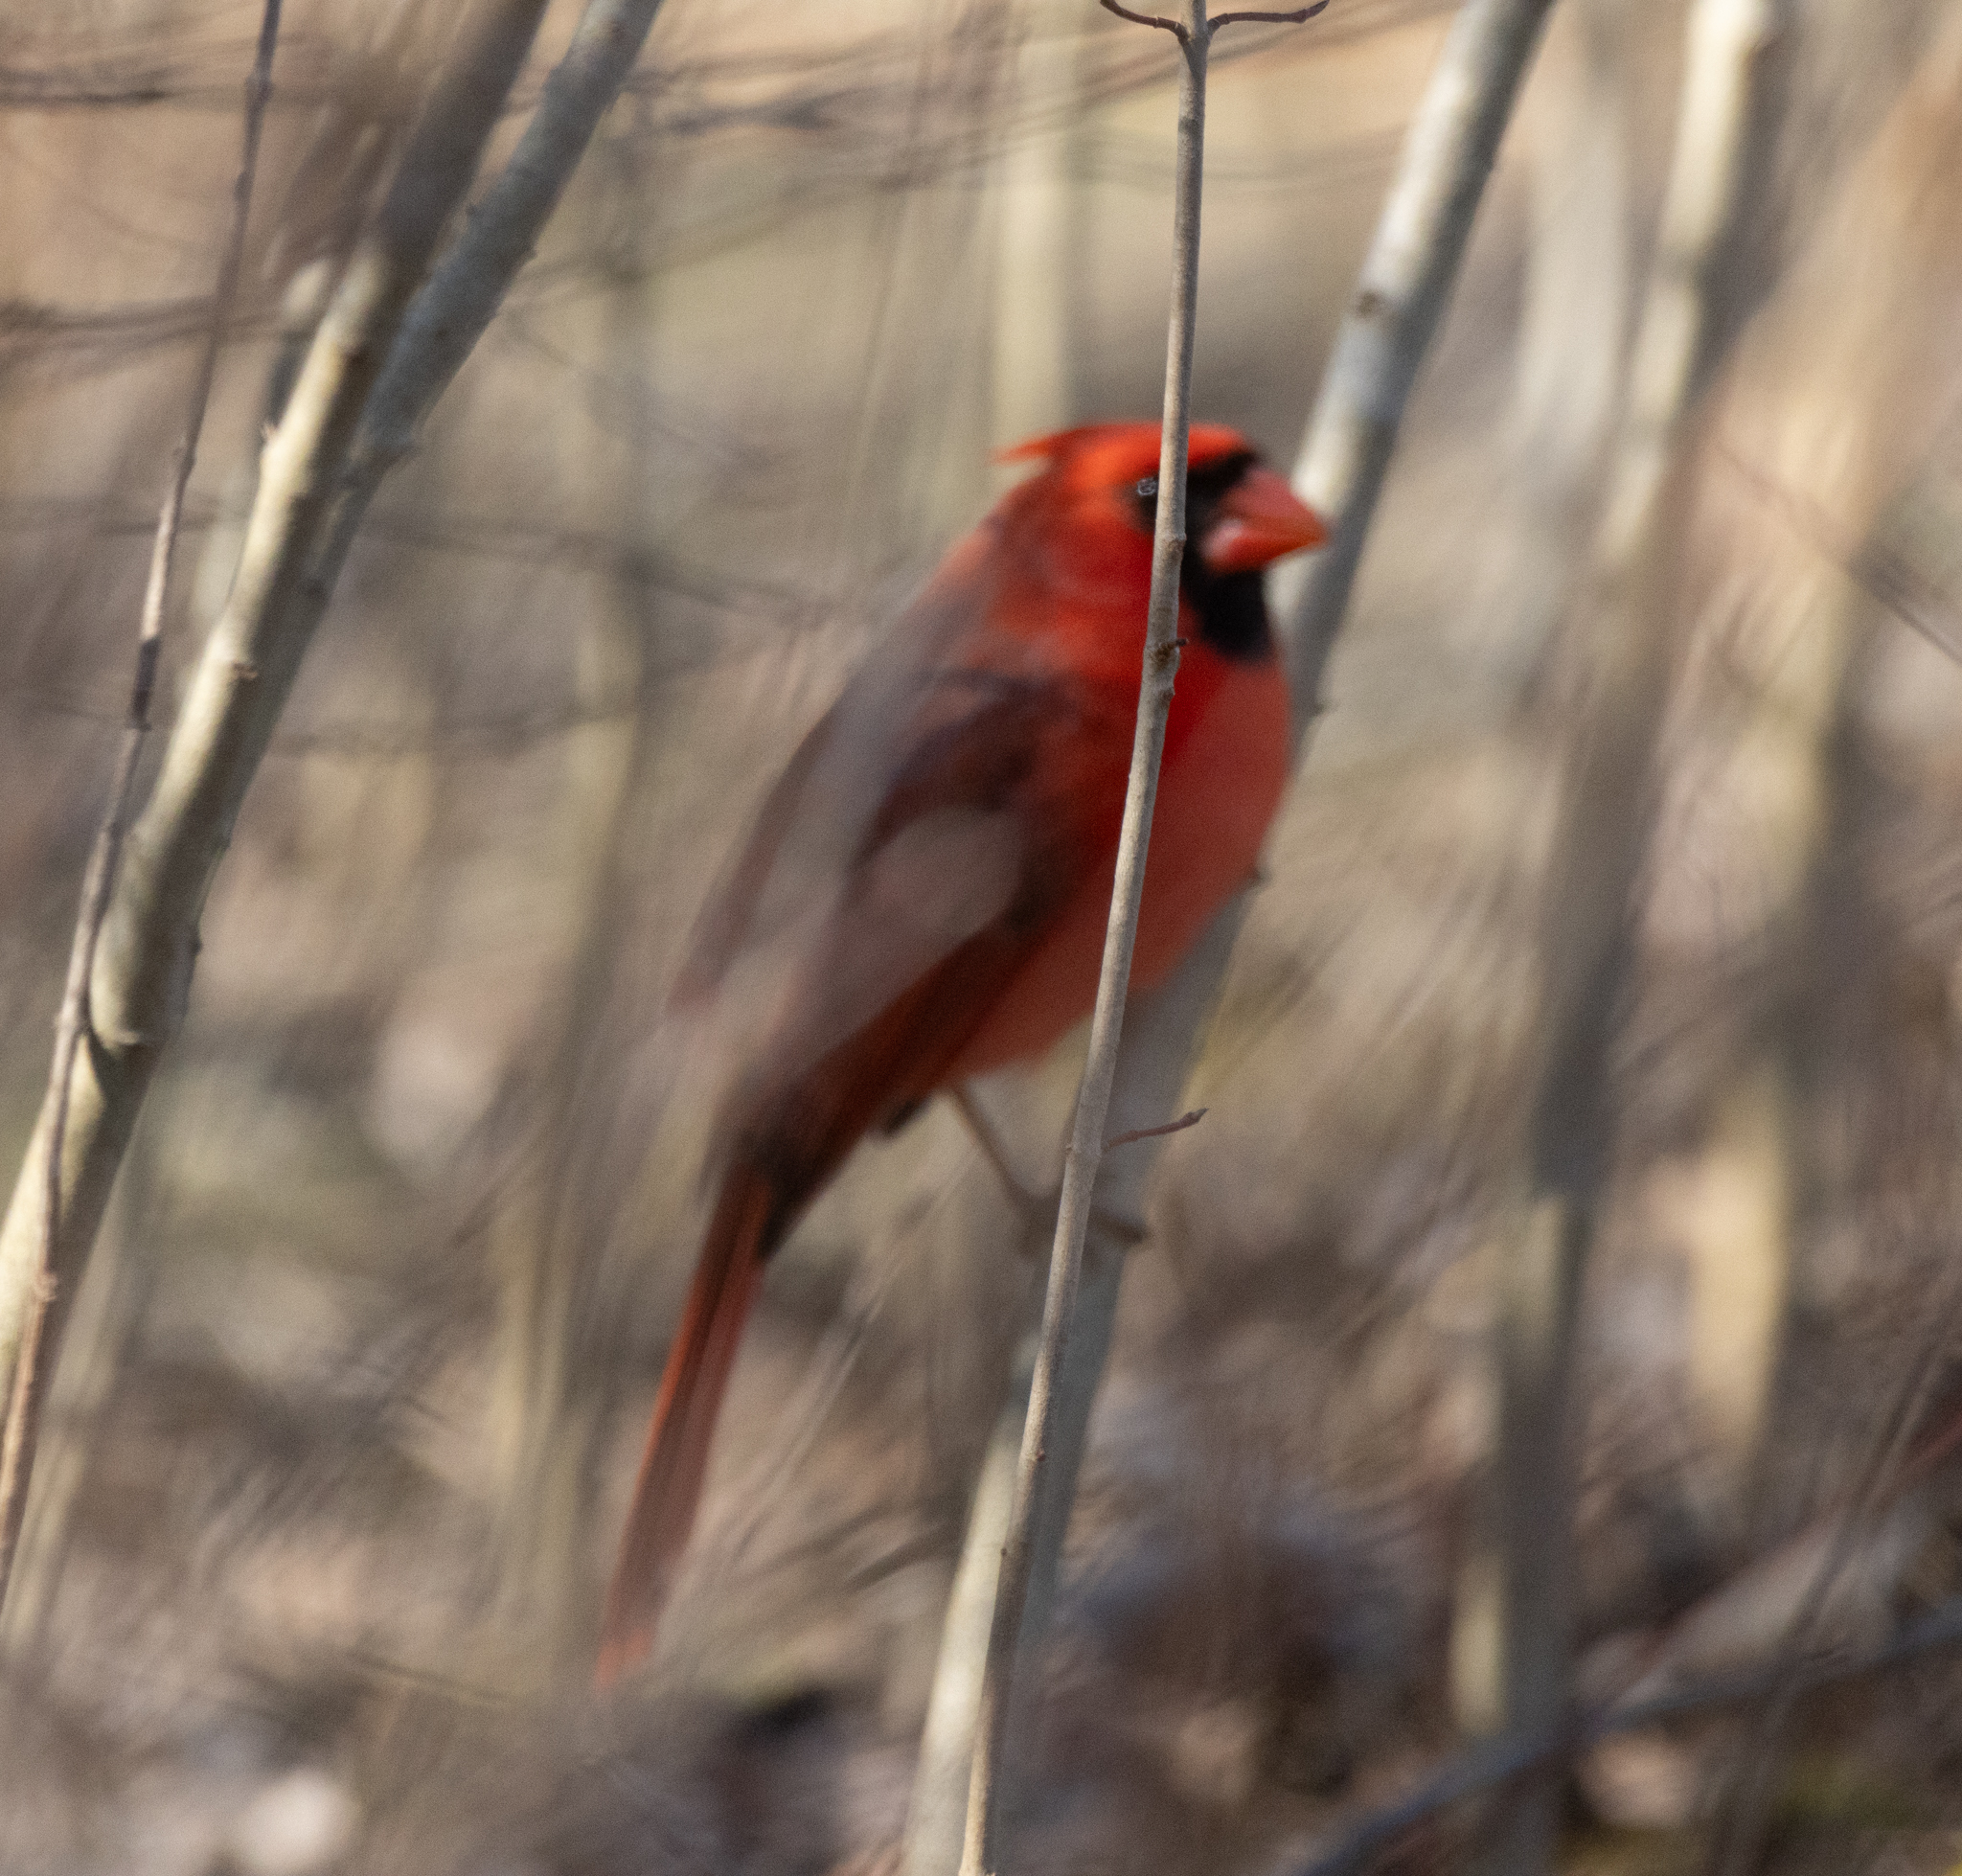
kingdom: Animalia
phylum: Chordata
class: Aves
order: Passeriformes
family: Cardinalidae
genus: Cardinalis
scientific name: Cardinalis cardinalis
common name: Northern cardinal
